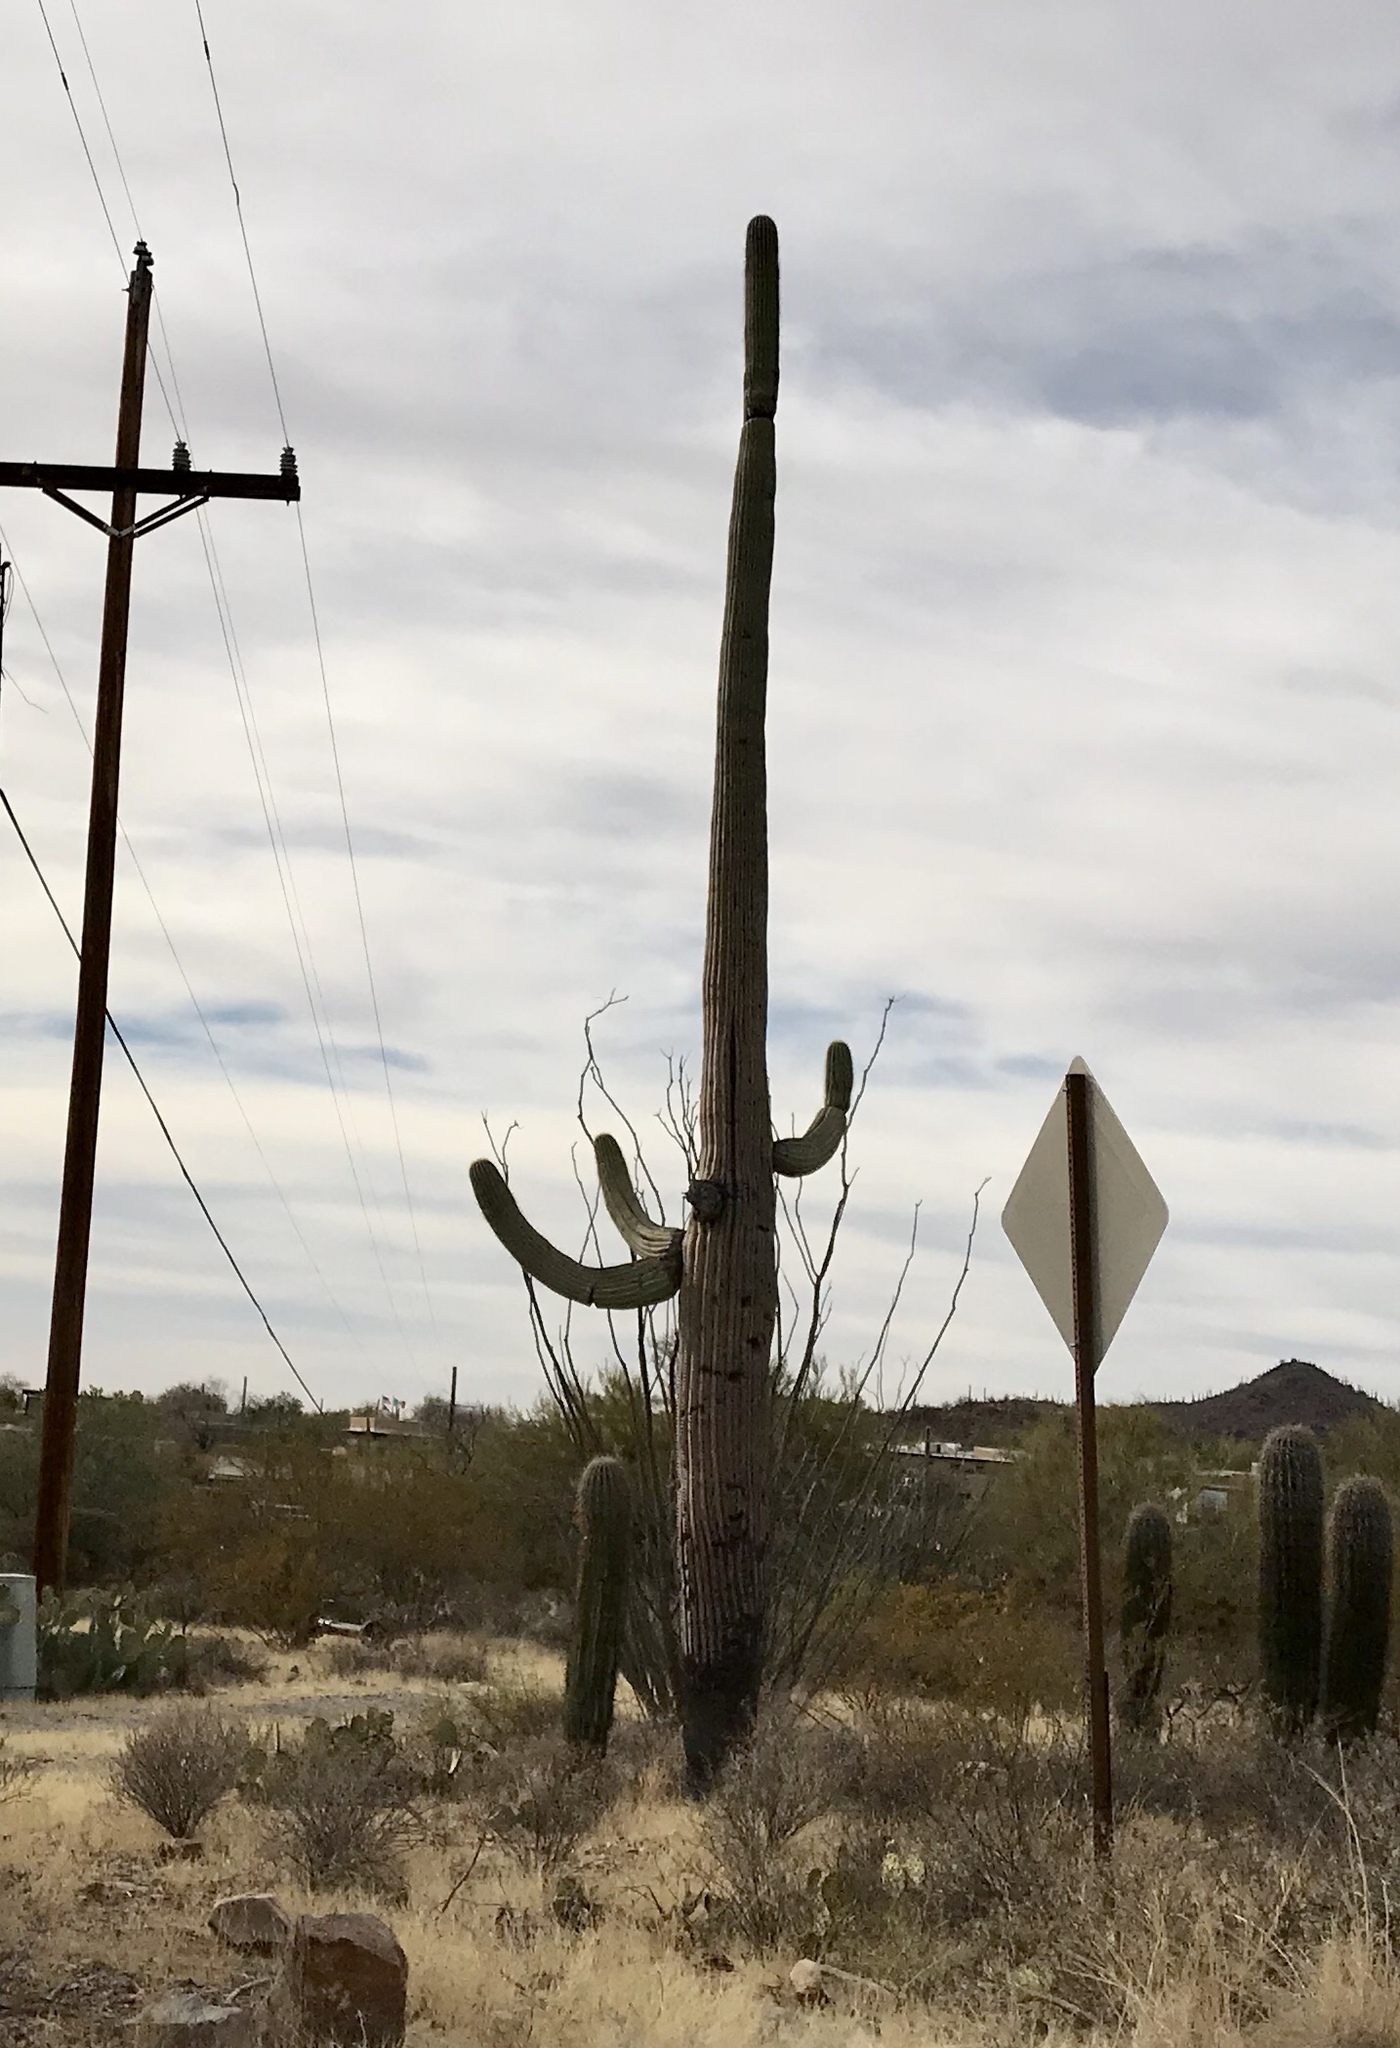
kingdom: Plantae
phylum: Tracheophyta
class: Magnoliopsida
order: Caryophyllales
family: Cactaceae
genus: Carnegiea
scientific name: Carnegiea gigantea
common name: Saguaro
